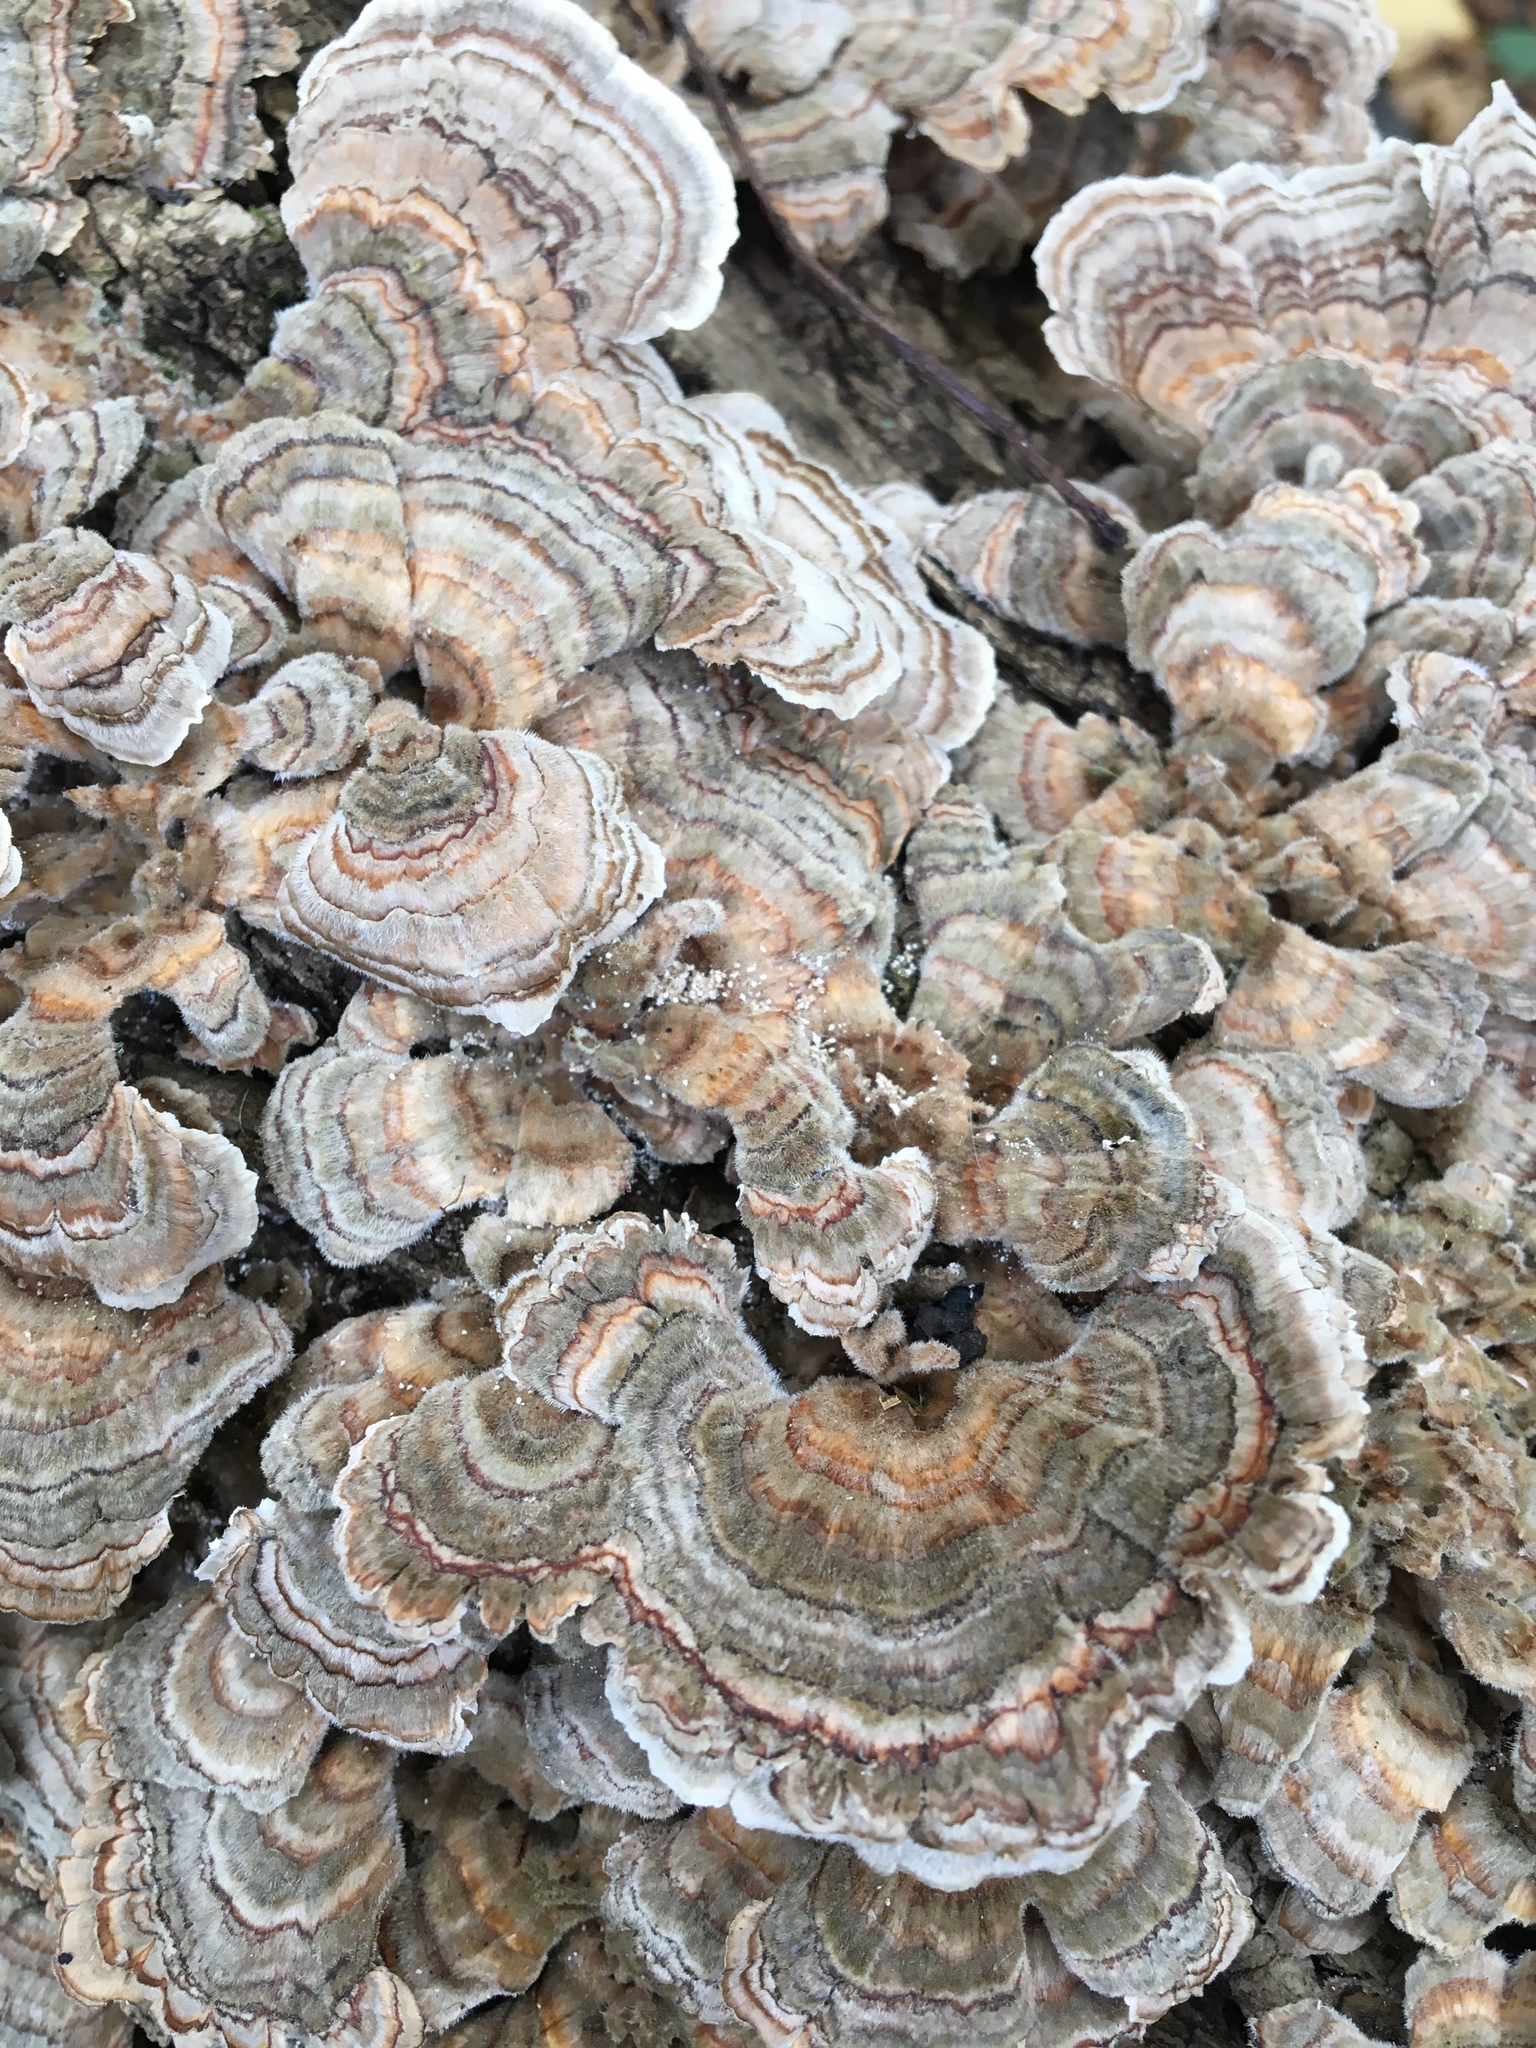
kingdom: Fungi
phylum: Basidiomycota
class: Agaricomycetes
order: Polyporales
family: Polyporaceae
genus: Trametes
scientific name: Trametes versicolor
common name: Turkeytail
